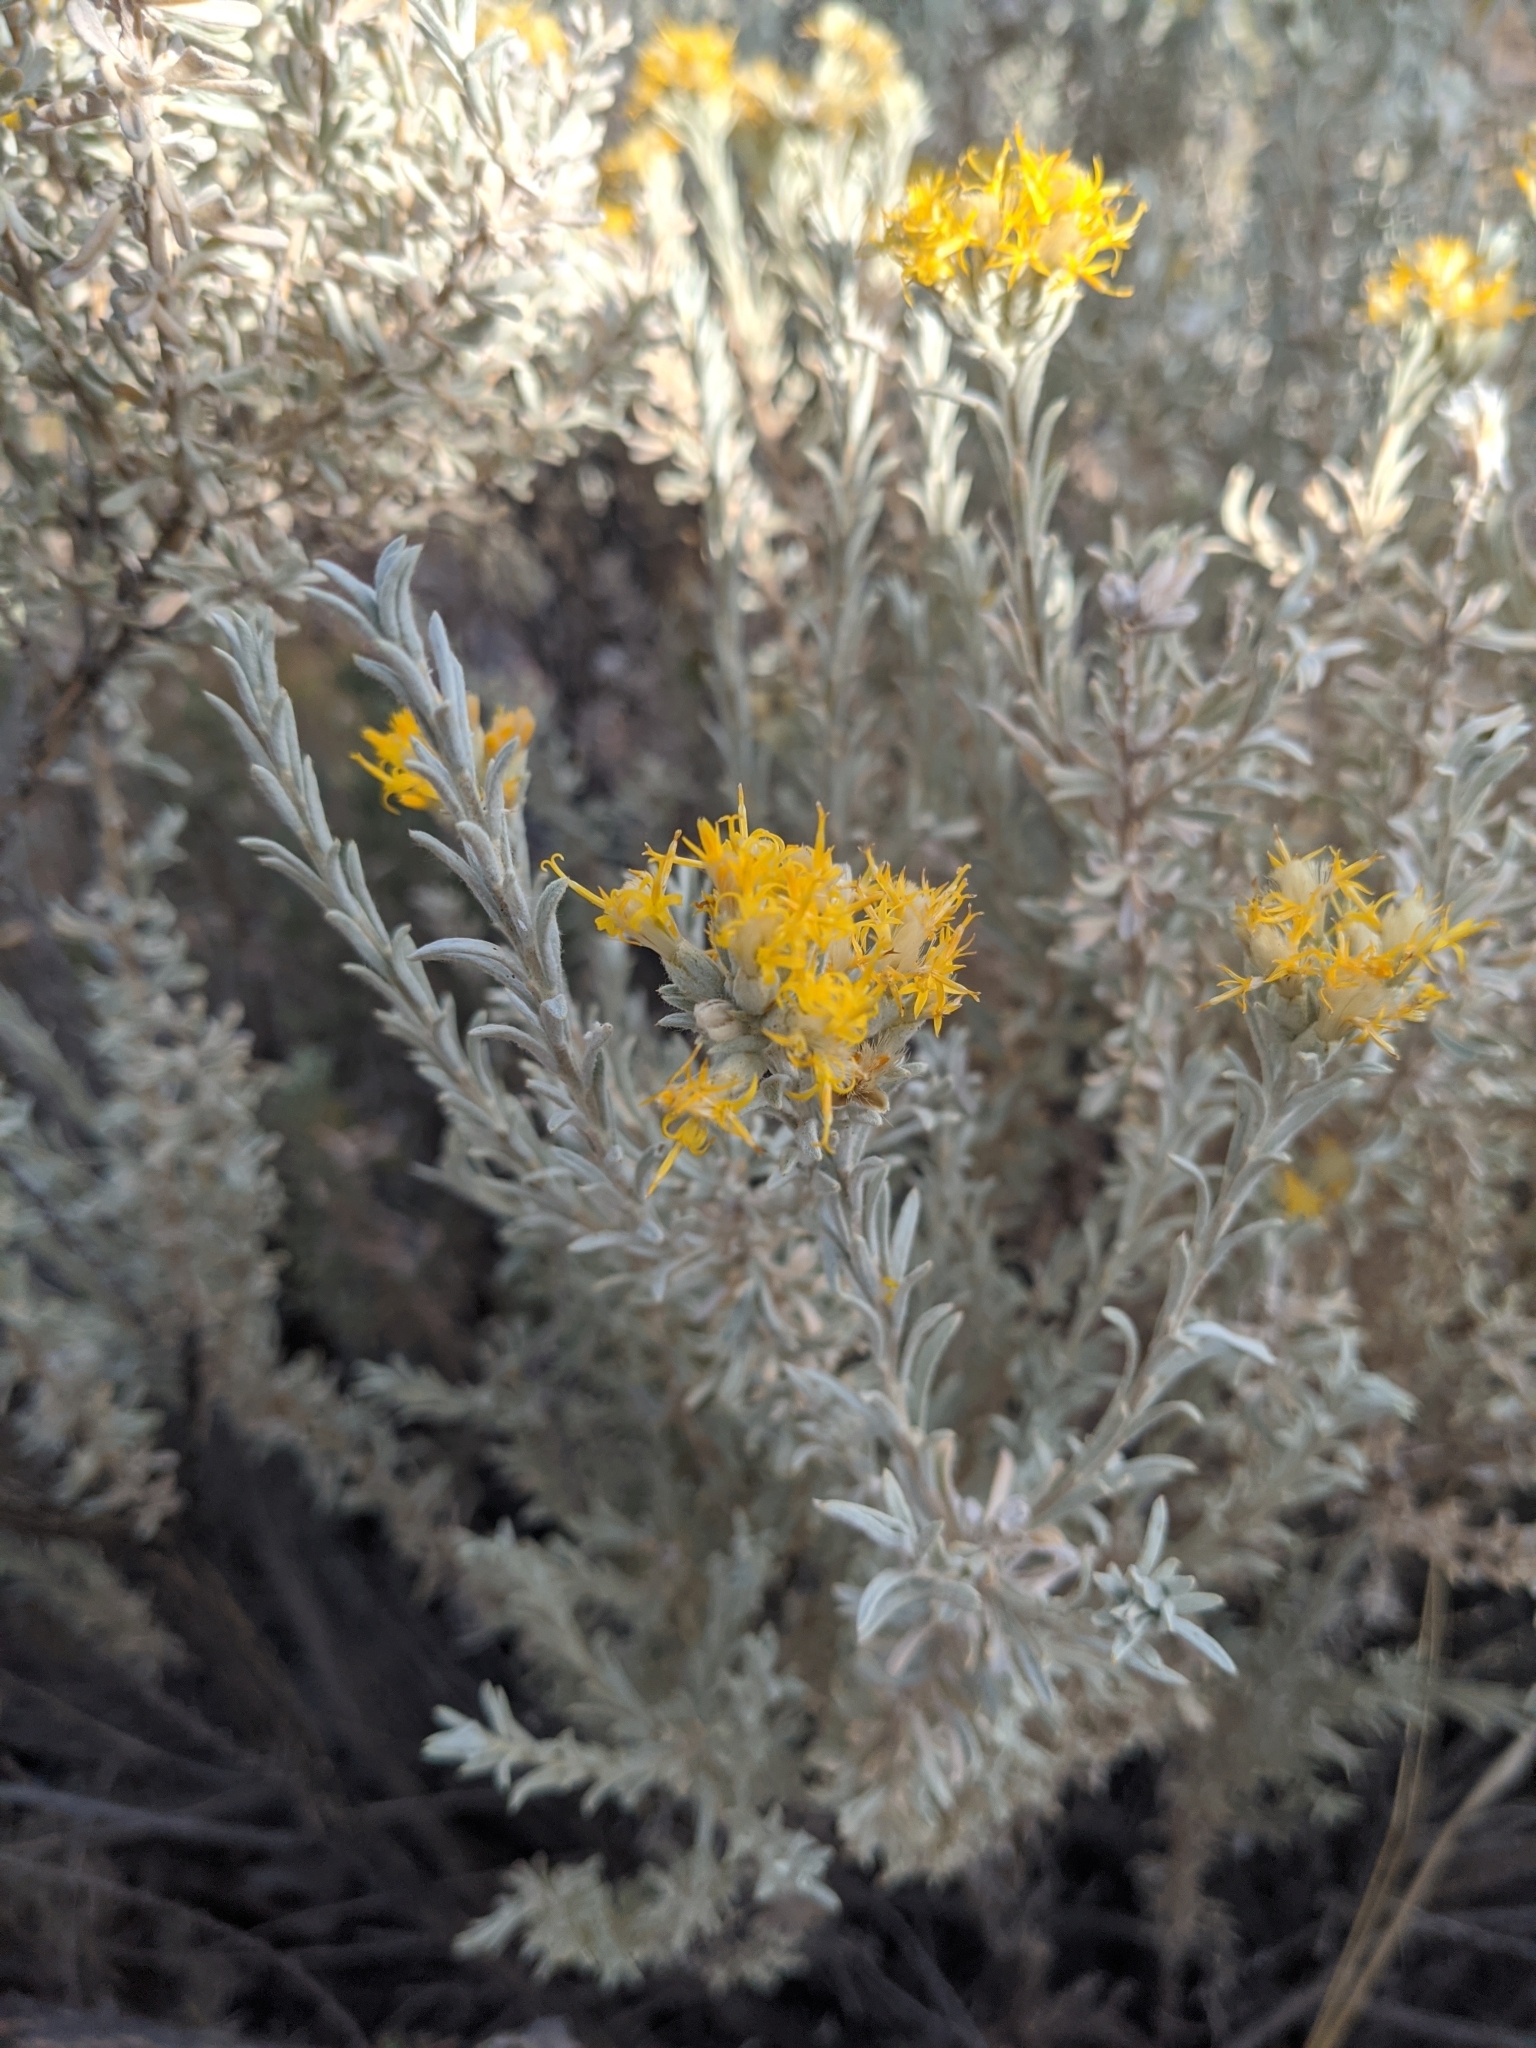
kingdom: Plantae
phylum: Tracheophyta
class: Magnoliopsida
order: Asterales
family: Asteraceae
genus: Tetradymia
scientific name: Tetradymia canescens
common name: Spineless horsebrush
